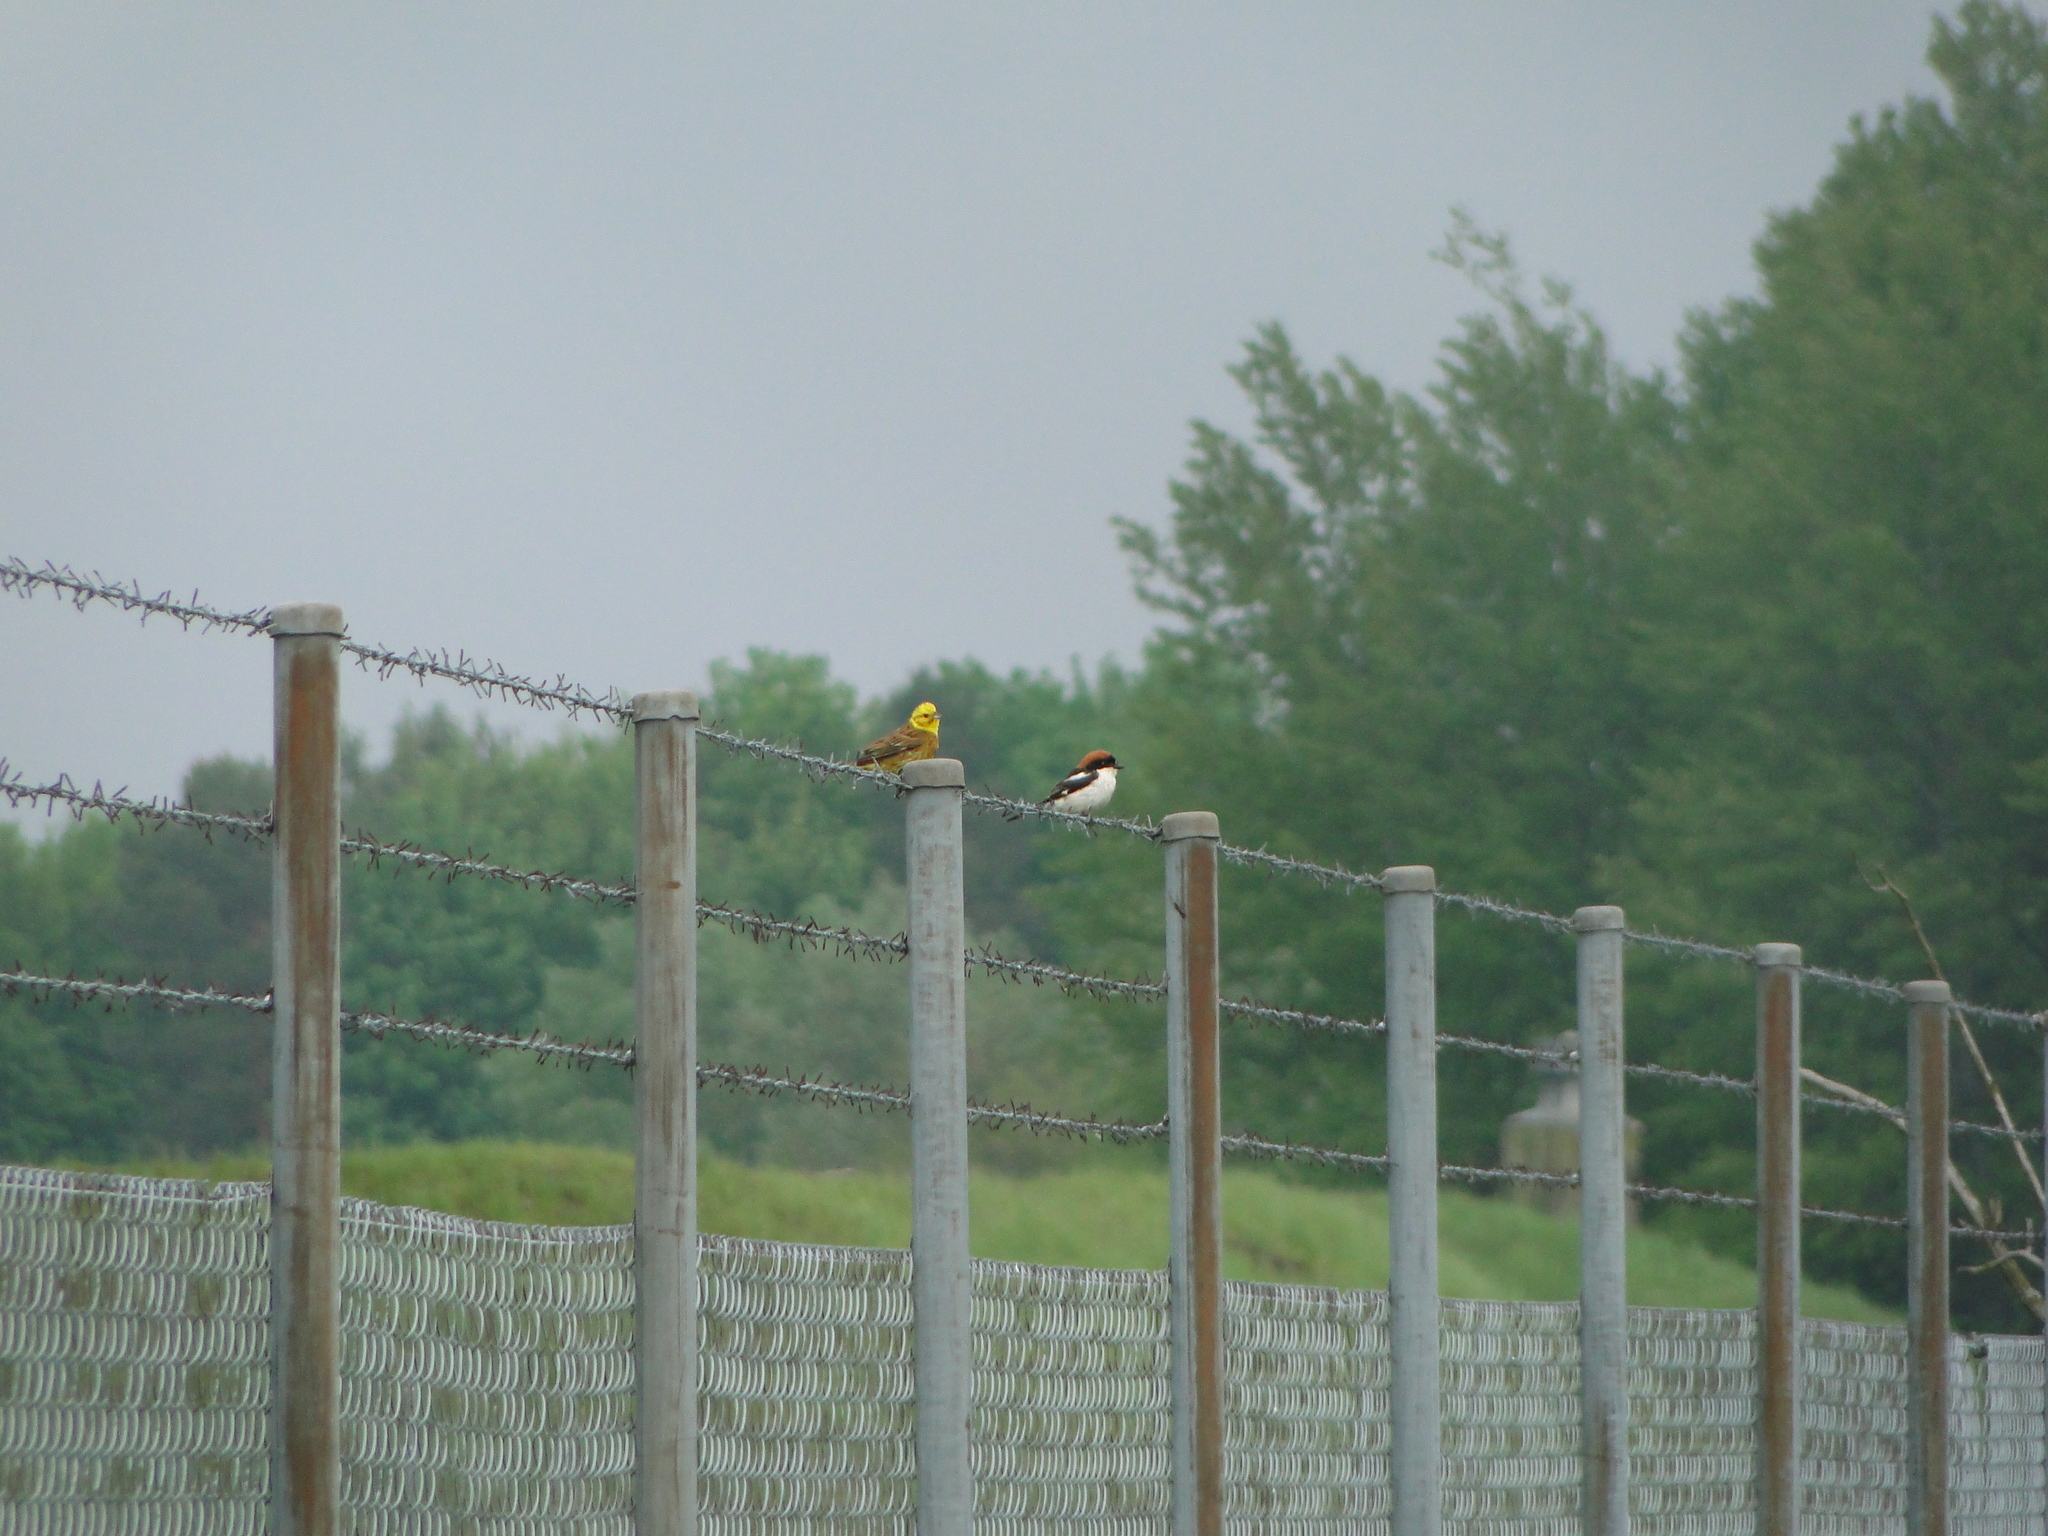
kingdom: Animalia
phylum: Chordata
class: Aves
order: Passeriformes
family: Laniidae
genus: Lanius
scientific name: Lanius senator
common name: Woodchat shrike
